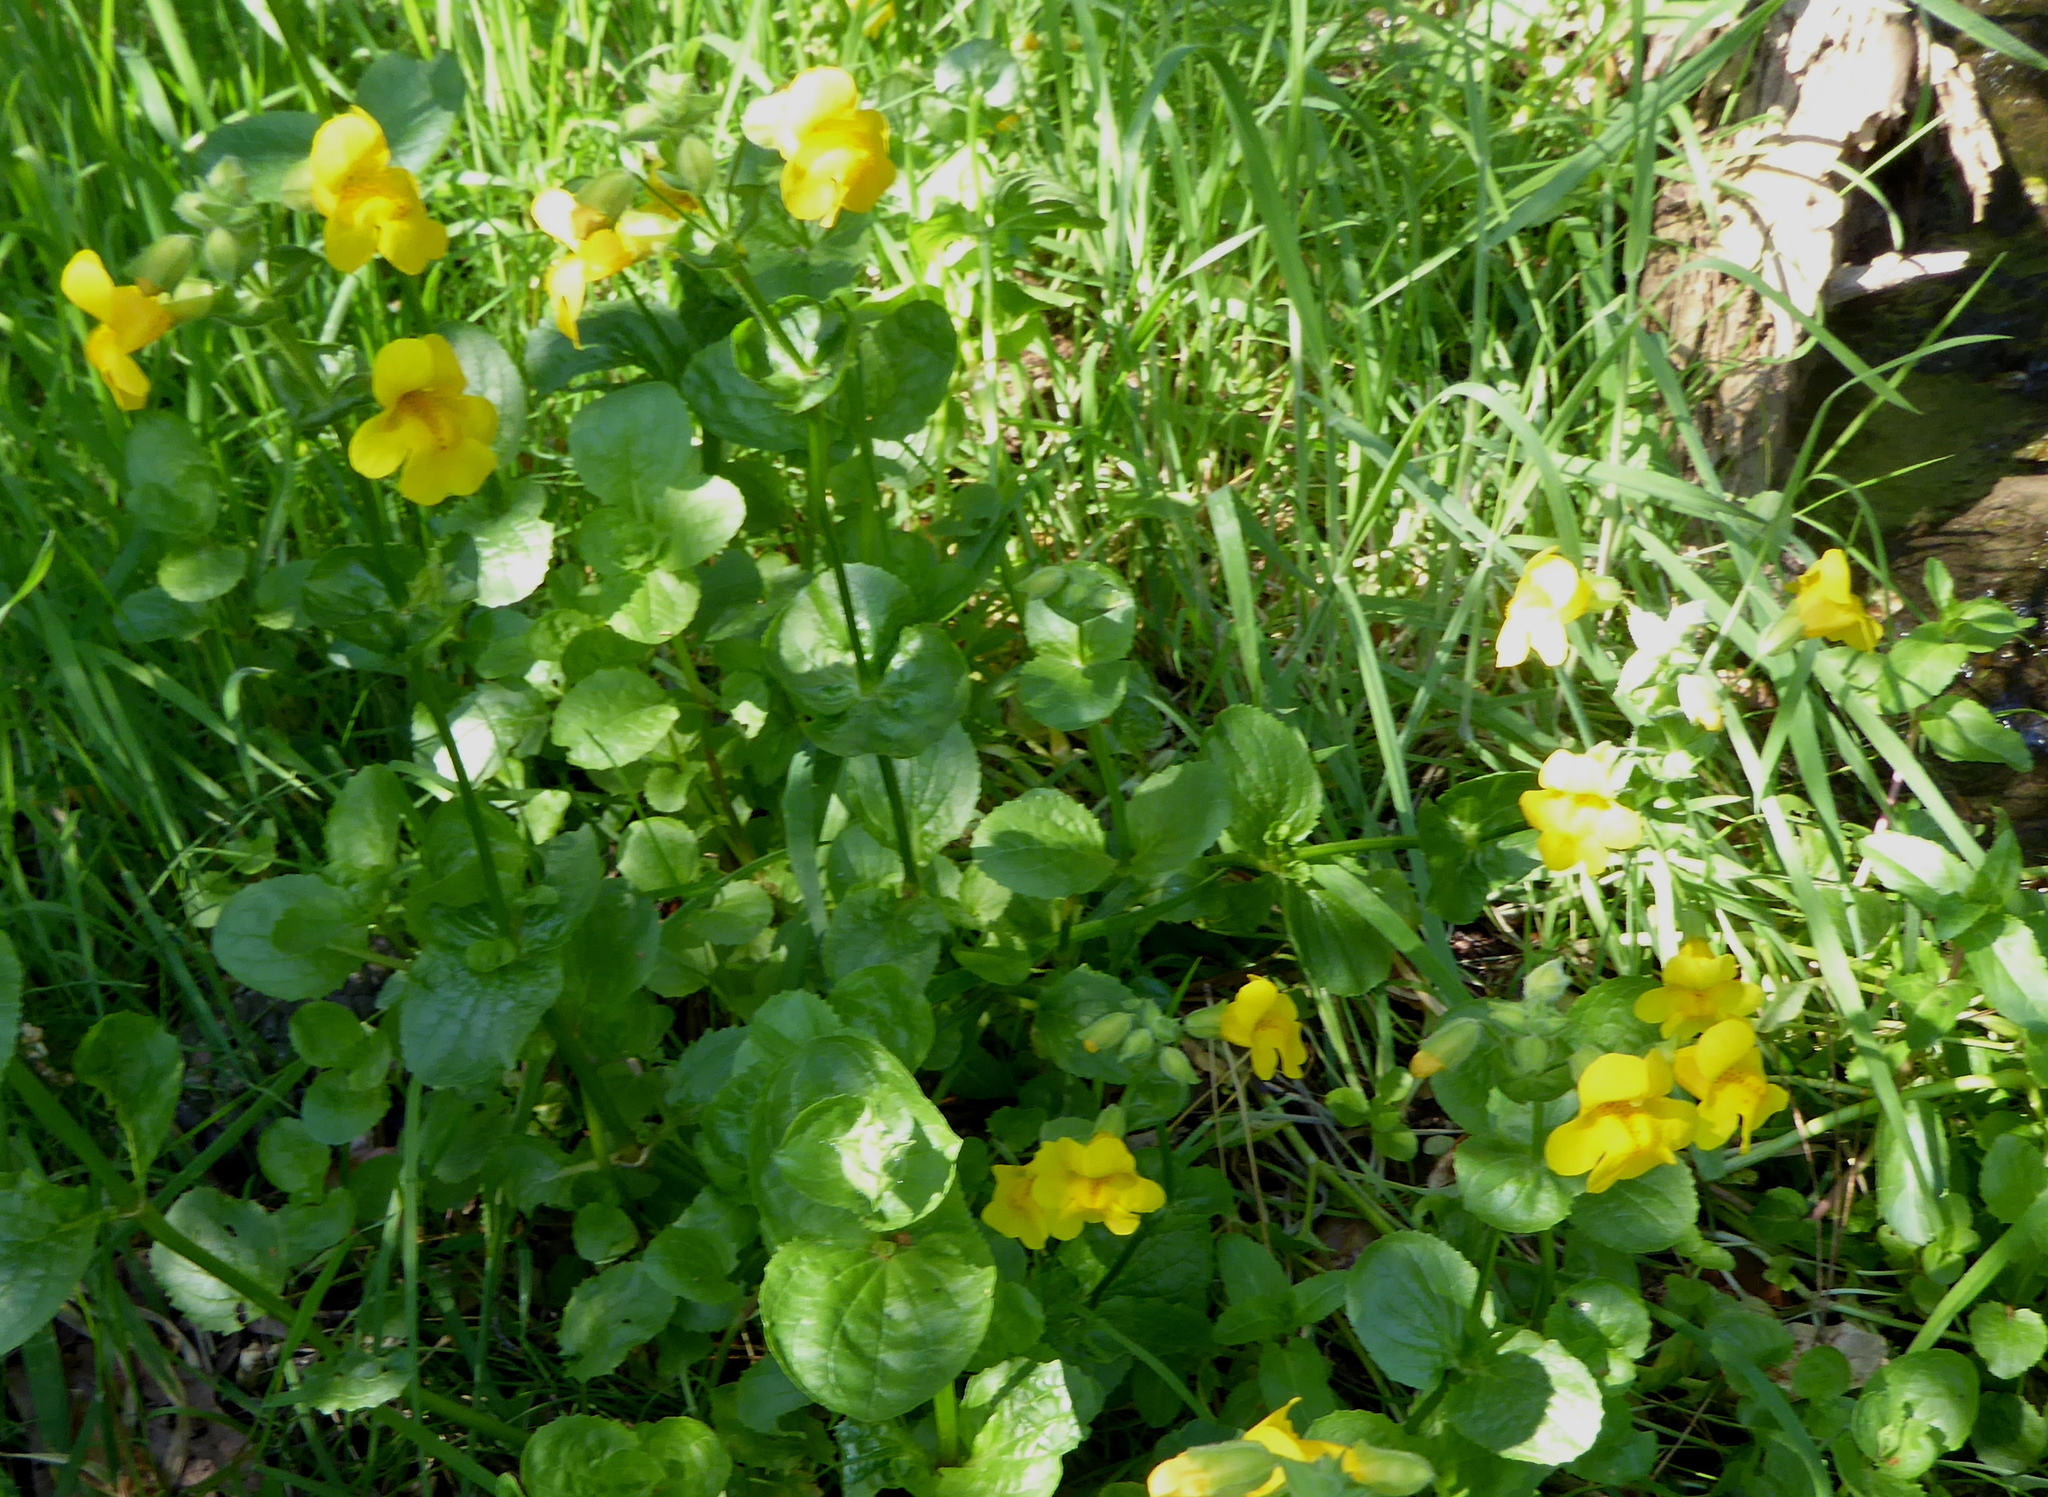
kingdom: Plantae
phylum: Tracheophyta
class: Magnoliopsida
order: Lamiales
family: Phrymaceae
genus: Erythranthe
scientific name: Erythranthe guttata
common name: Monkeyflower
